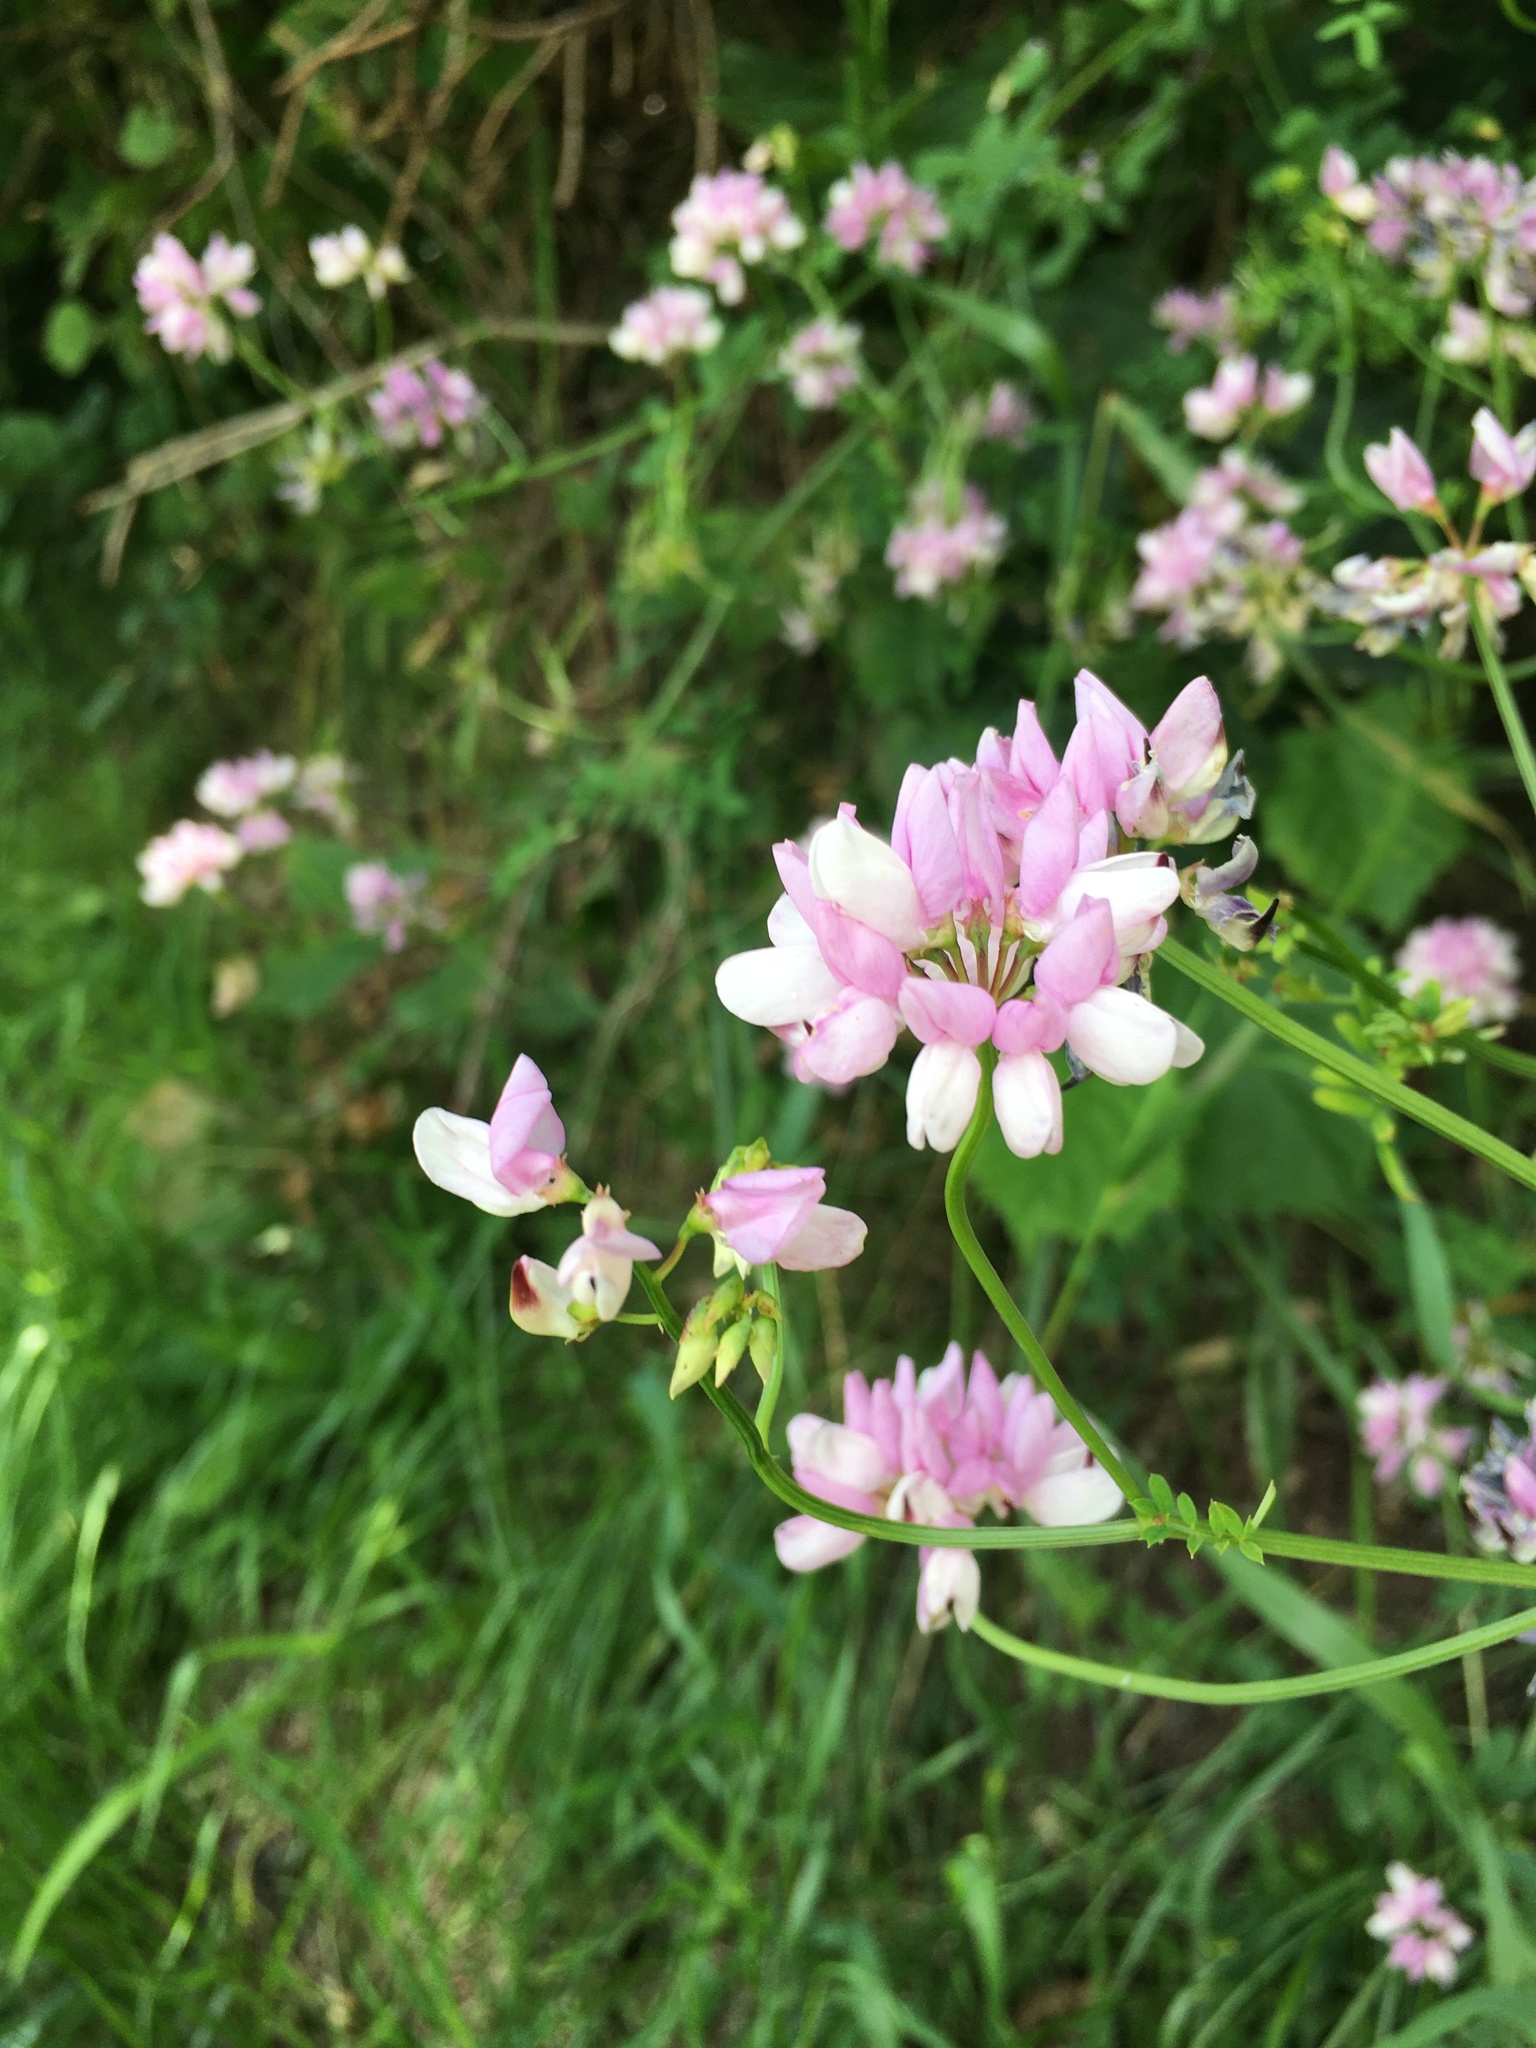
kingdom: Plantae
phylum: Tracheophyta
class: Magnoliopsida
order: Fabales
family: Fabaceae
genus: Coronilla
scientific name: Coronilla varia
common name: Crownvetch
